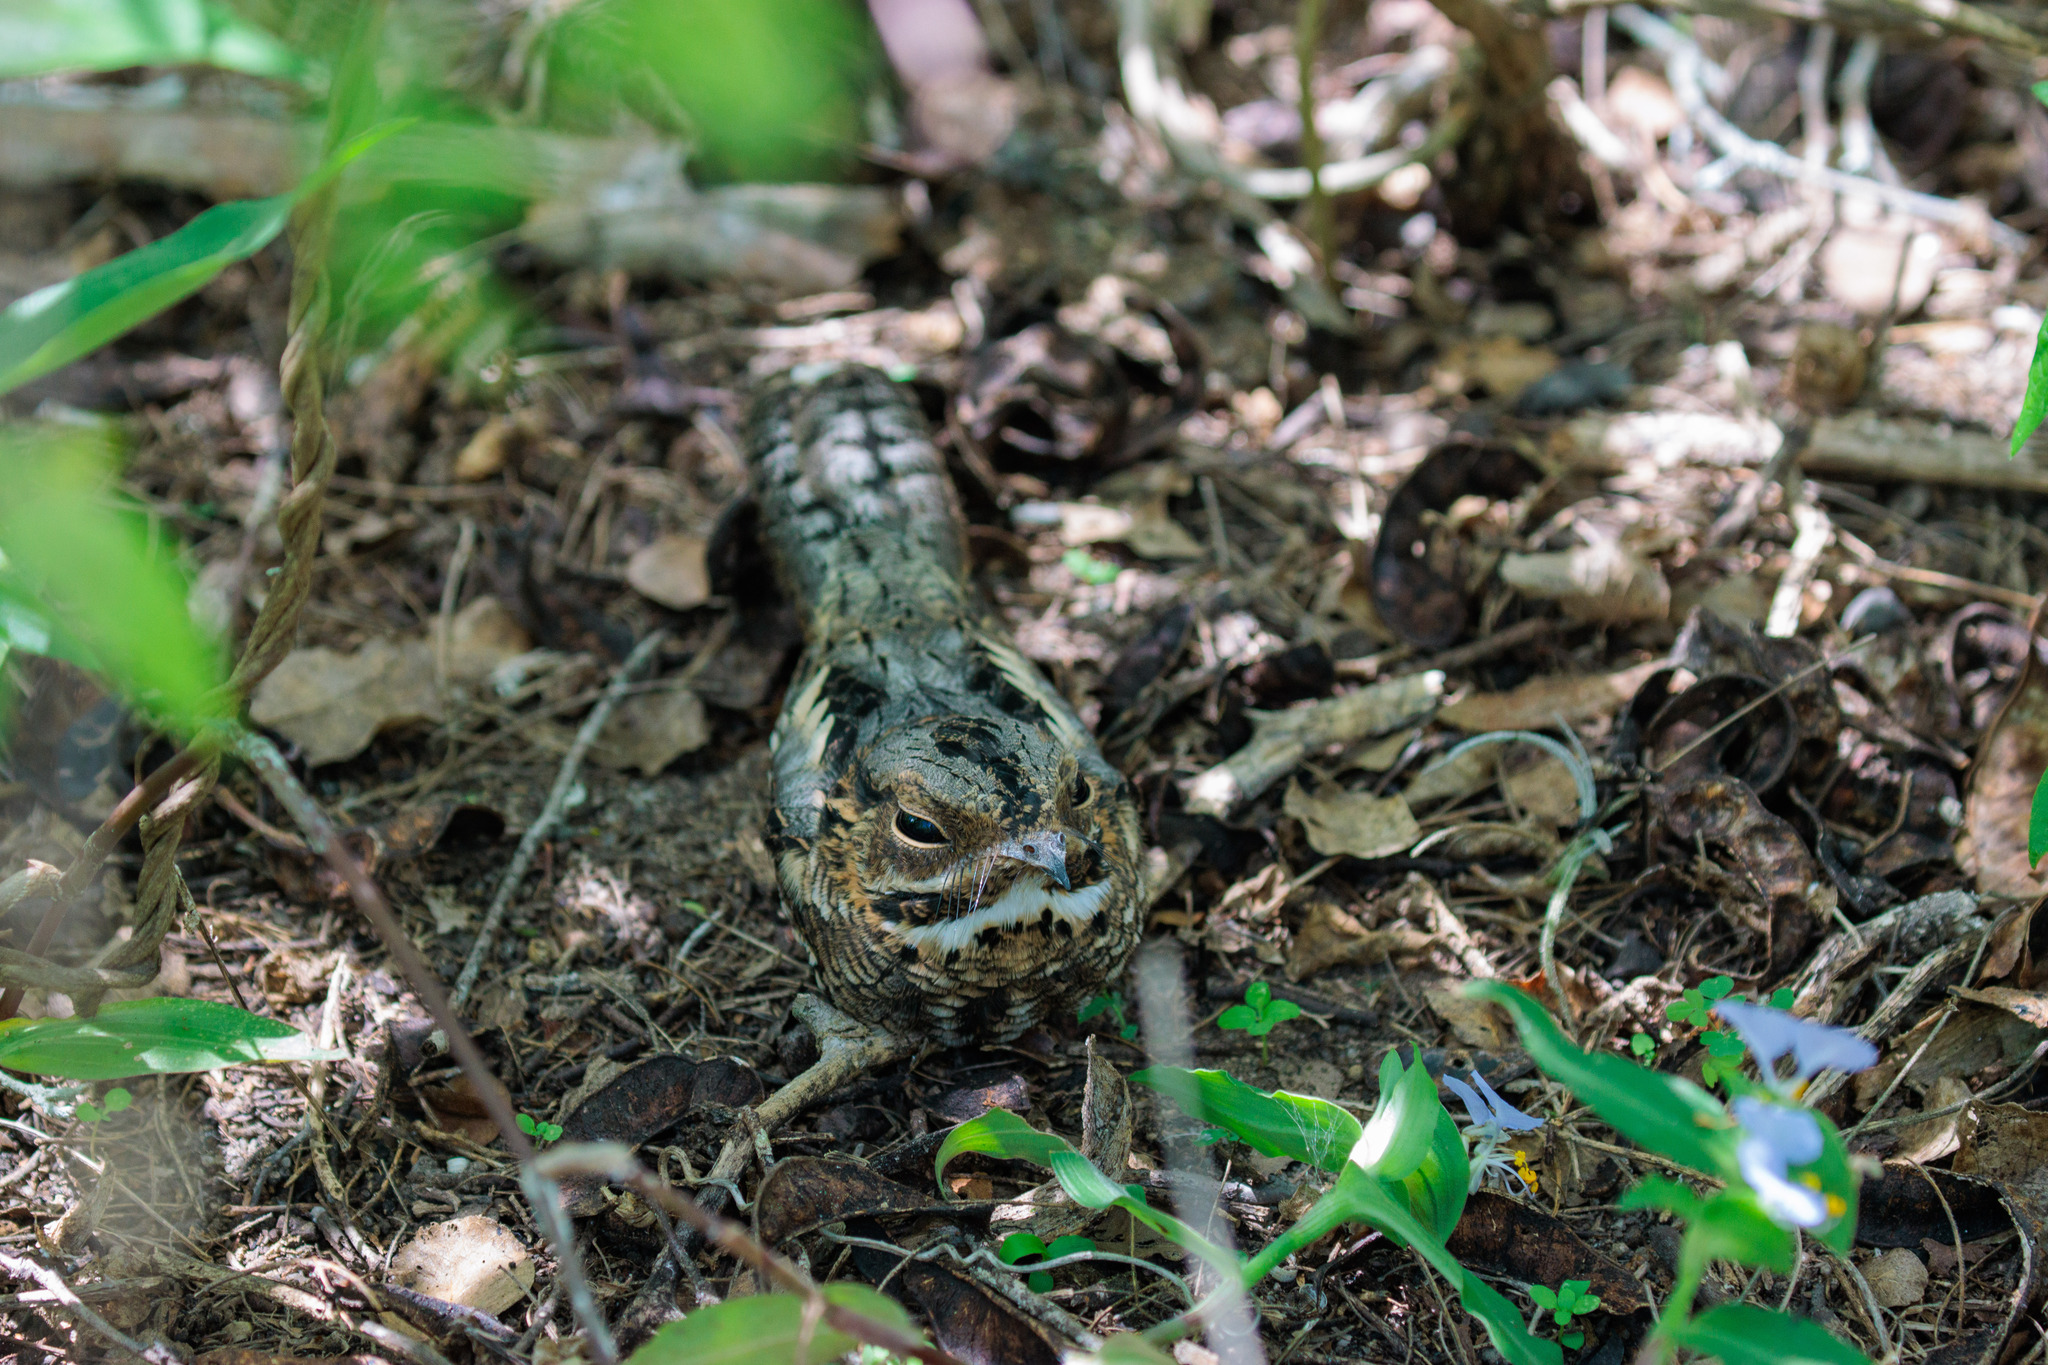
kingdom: Animalia
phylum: Chordata
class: Aves
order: Caprimulgiformes
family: Caprimulgidae
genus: Setopagis
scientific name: Setopagis parvula
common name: Little nightjar
